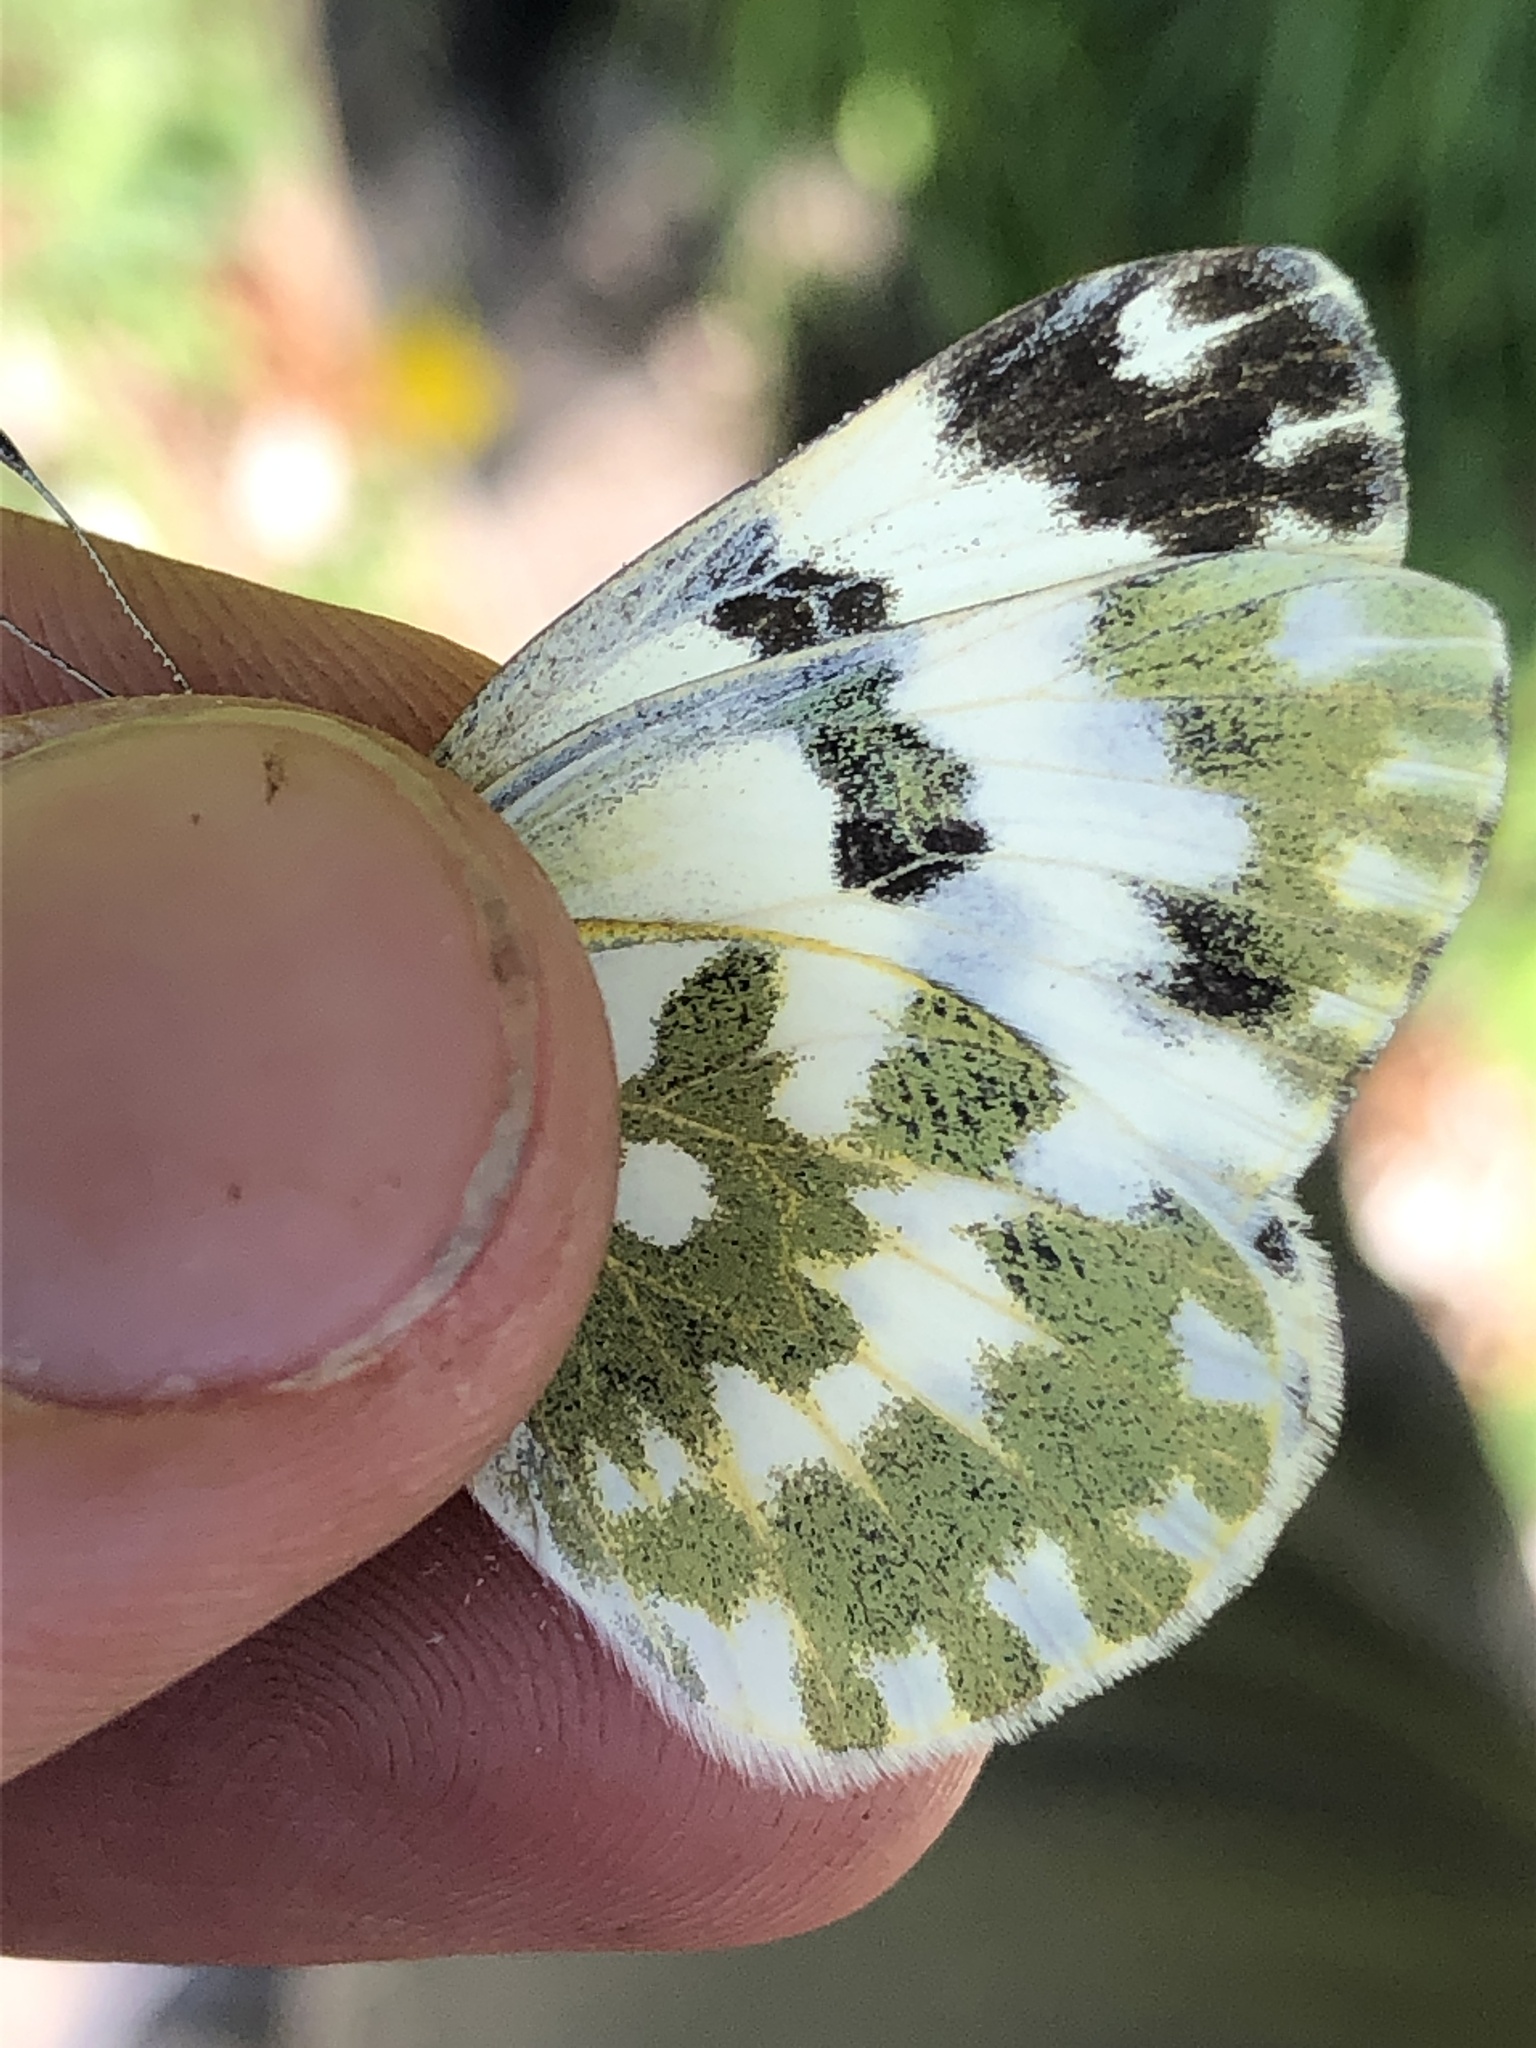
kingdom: Animalia
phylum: Arthropoda
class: Insecta
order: Lepidoptera
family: Pieridae
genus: Pontia
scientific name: Pontia edusa
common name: Eastern bath white
